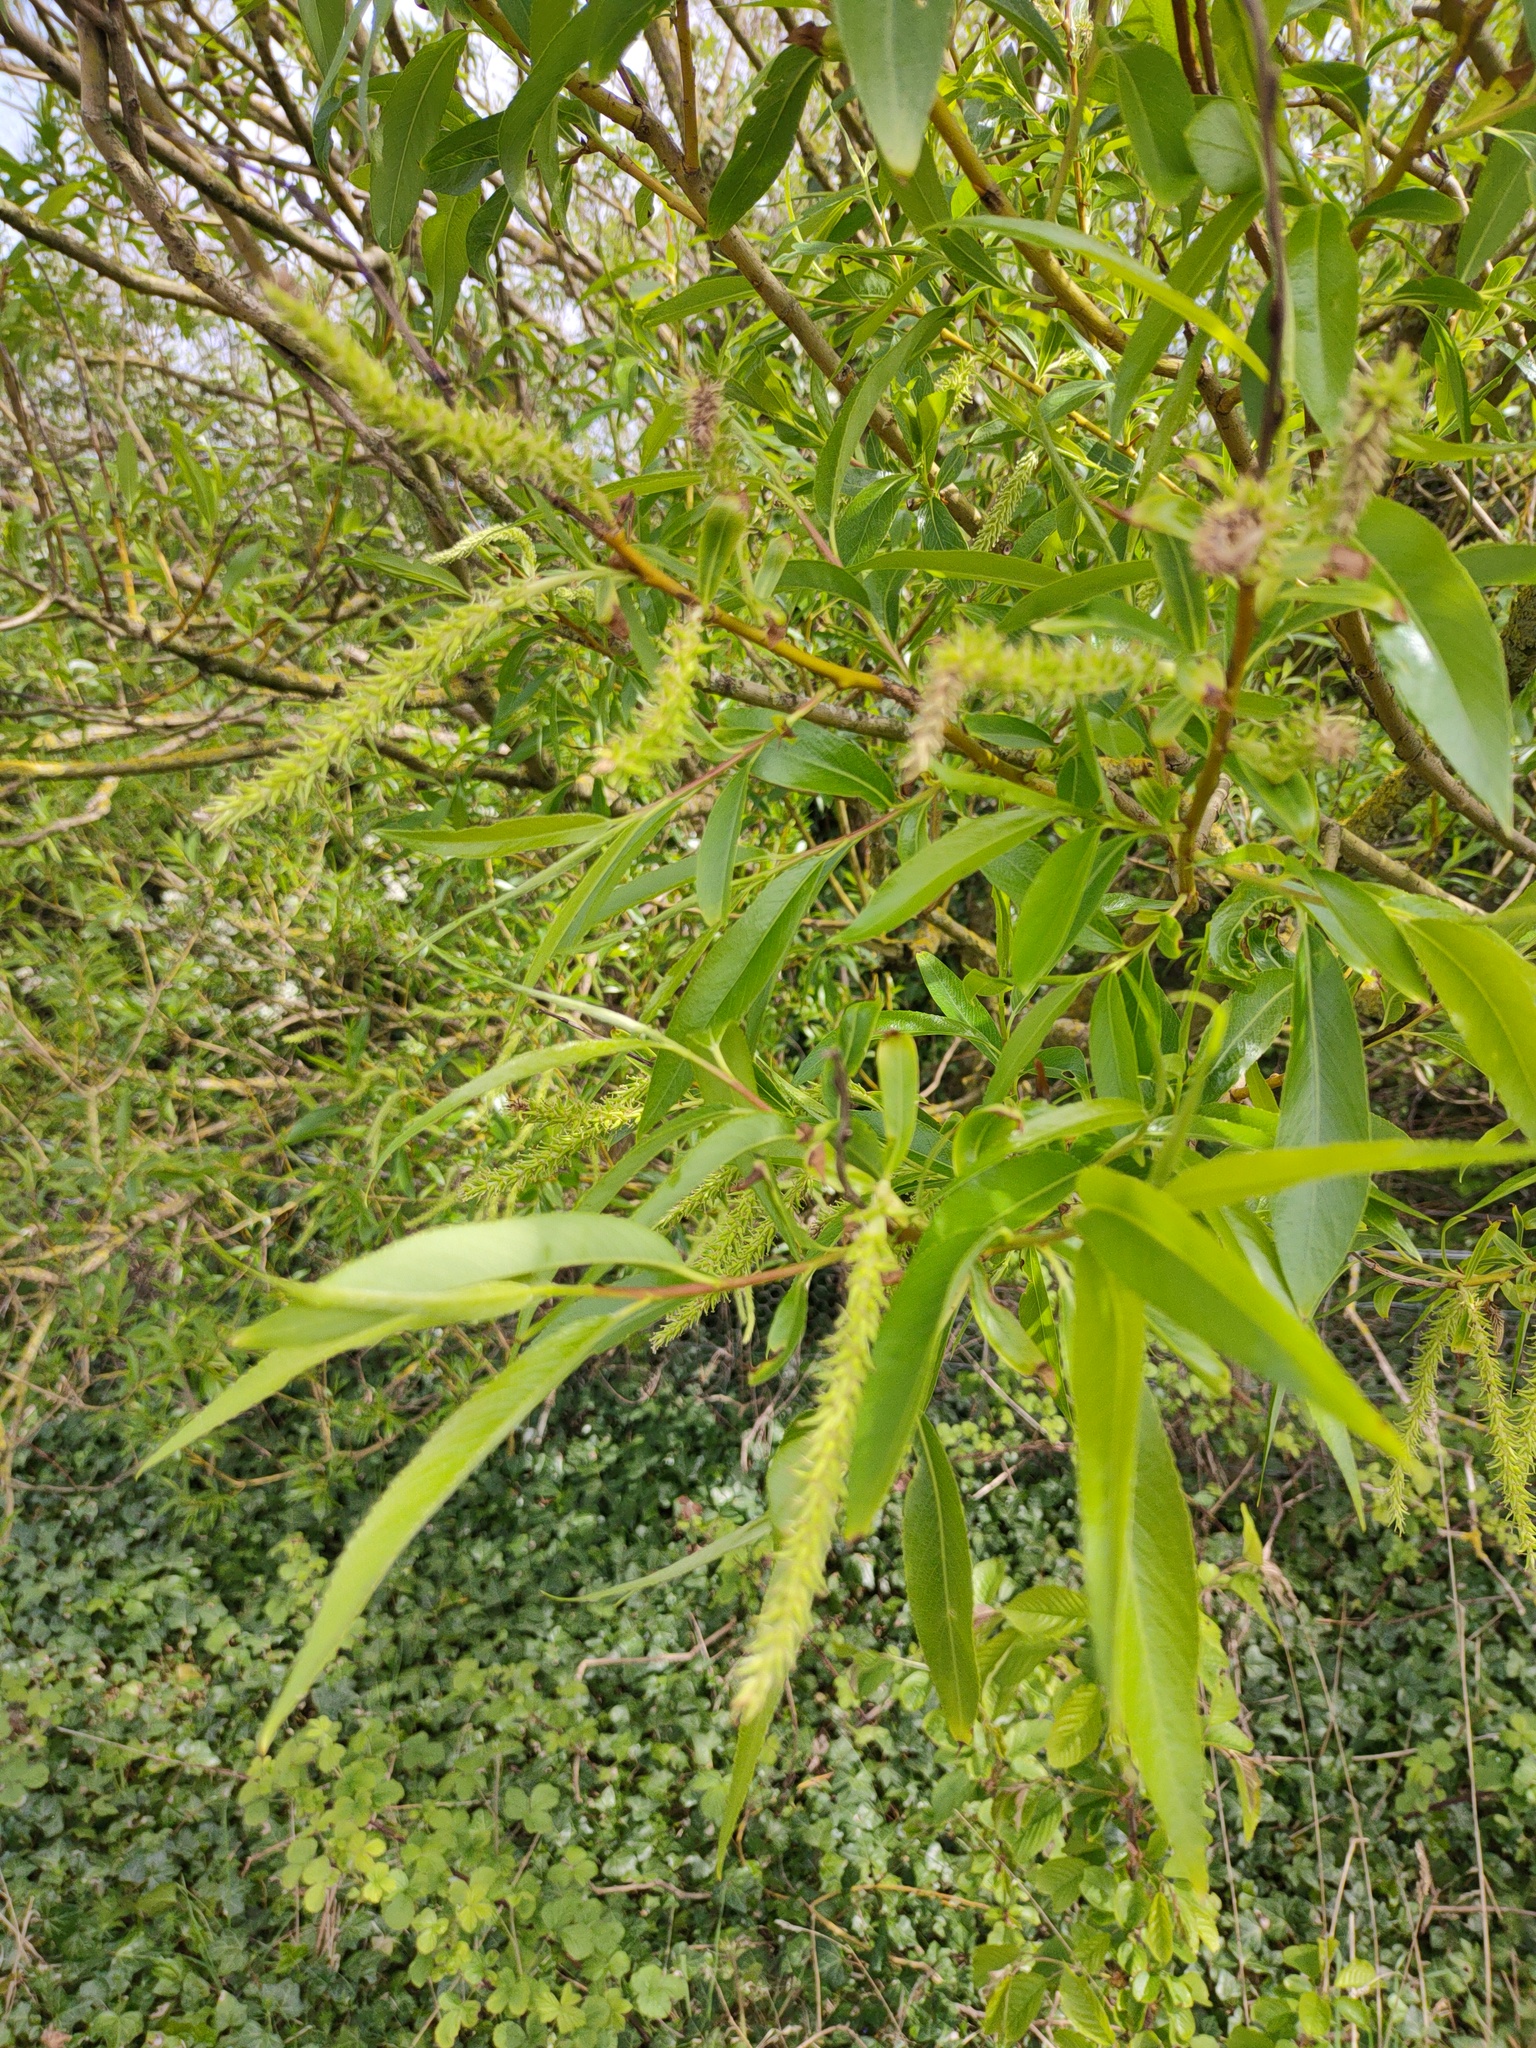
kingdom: Plantae
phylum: Tracheophyta
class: Magnoliopsida
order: Malpighiales
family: Salicaceae
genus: Salix
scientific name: Salix fragilis
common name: Crack willow
